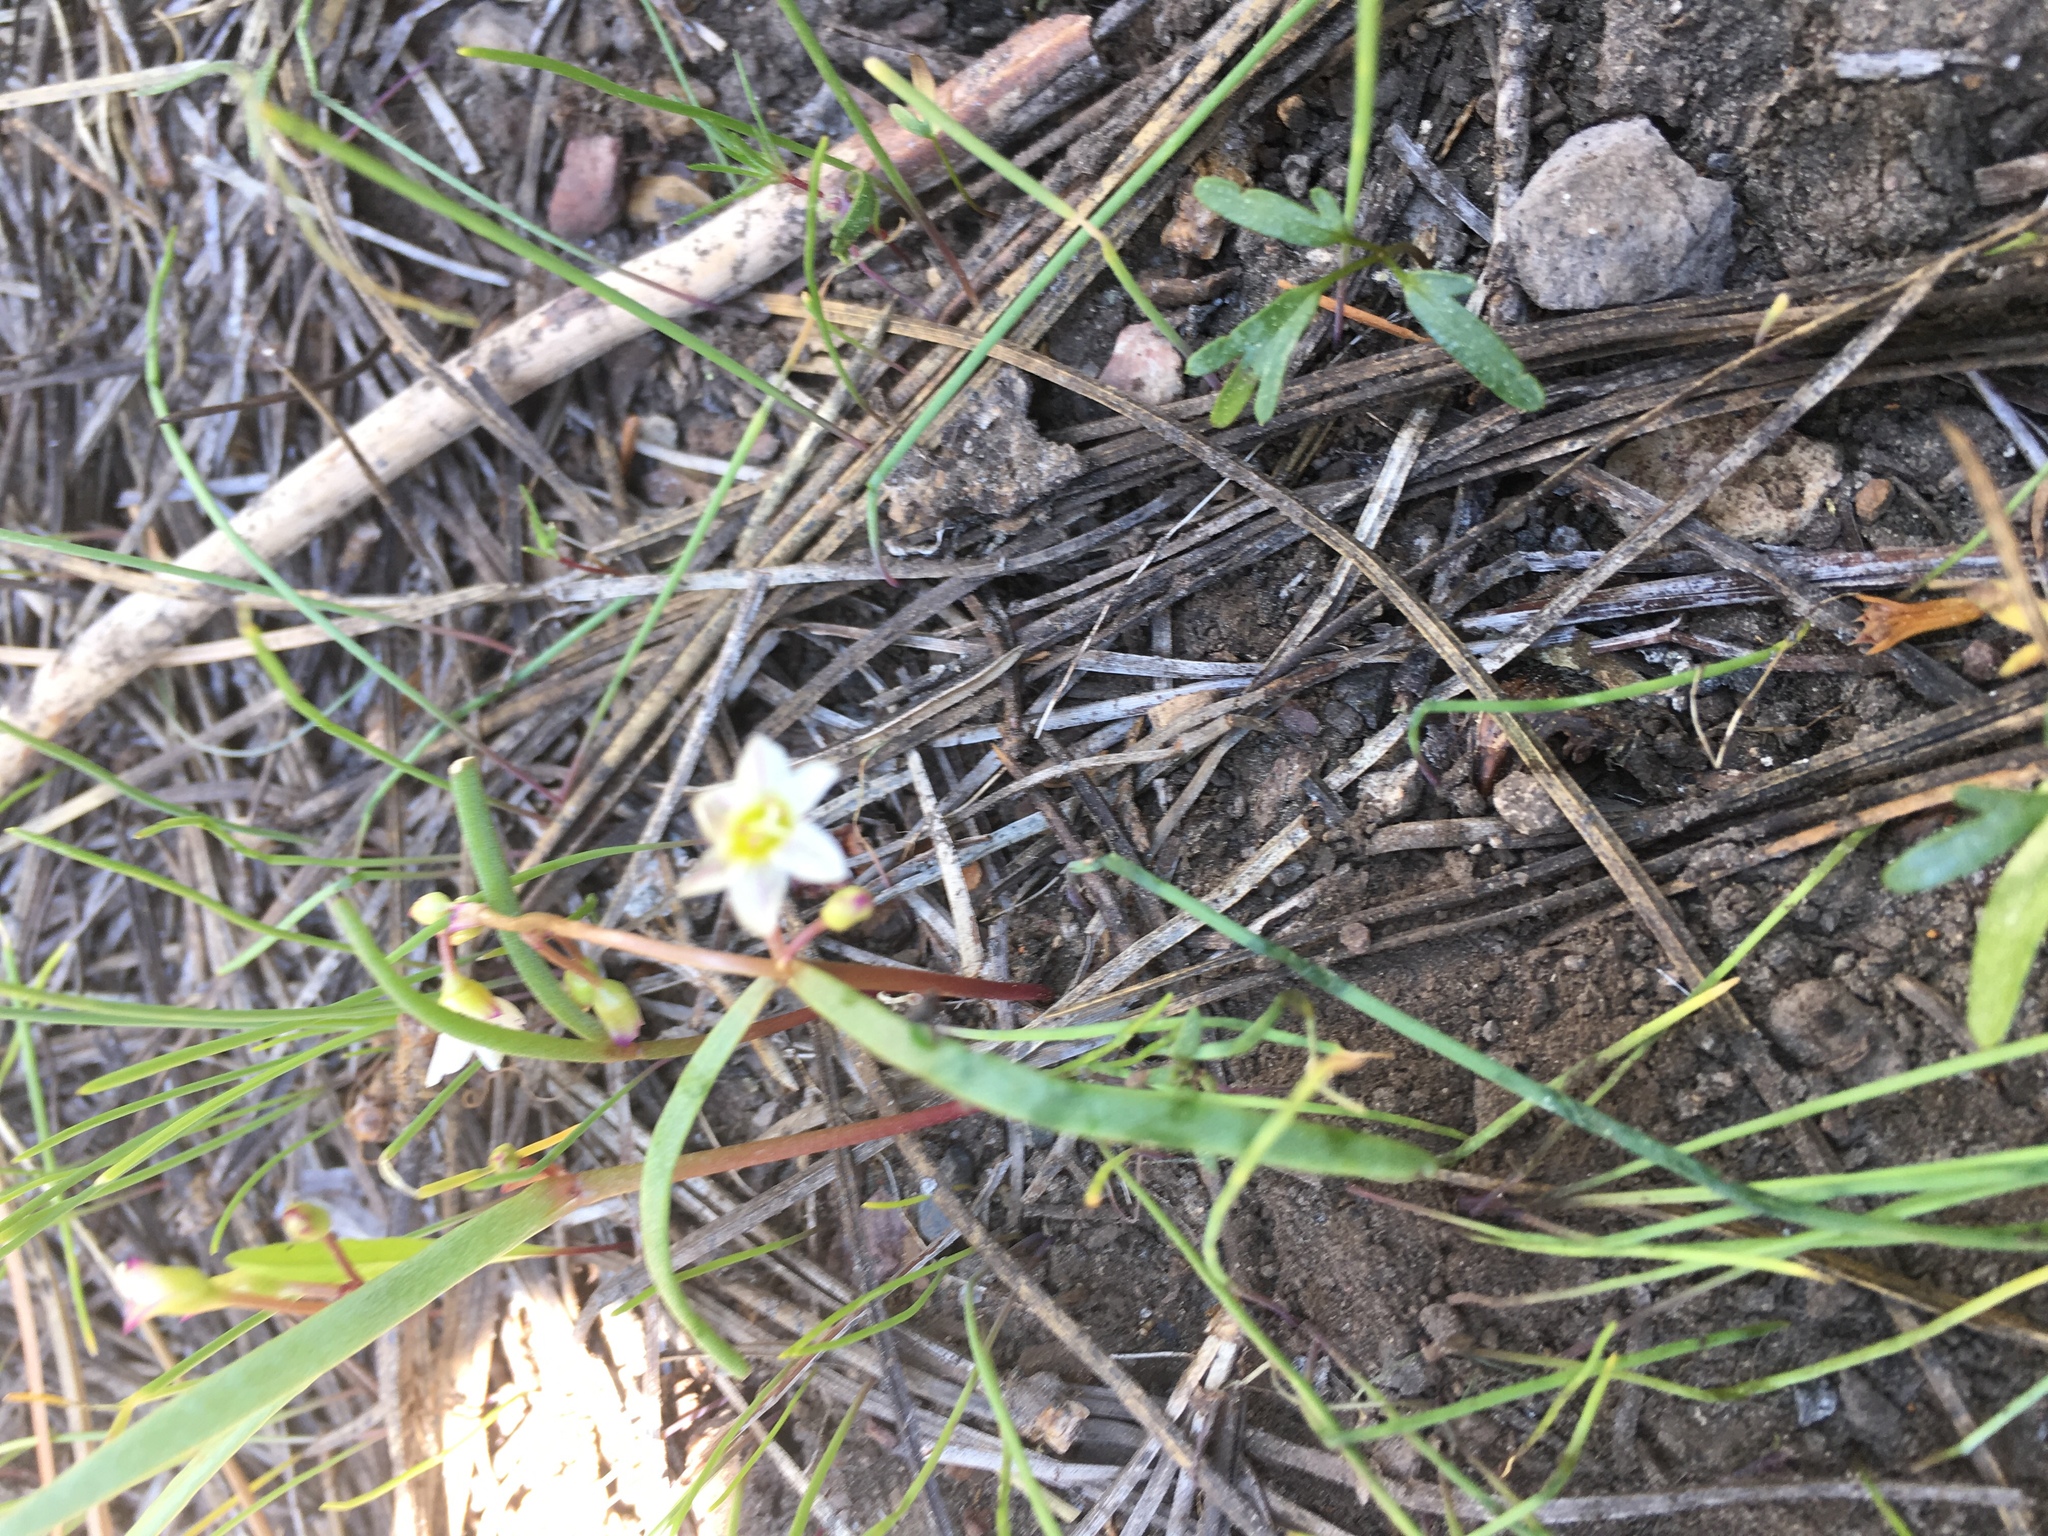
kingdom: Plantae
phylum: Tracheophyta
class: Magnoliopsida
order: Caryophyllales
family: Montiaceae
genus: Lewisia
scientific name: Lewisia triphylla
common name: Three-leaved bitterroot
